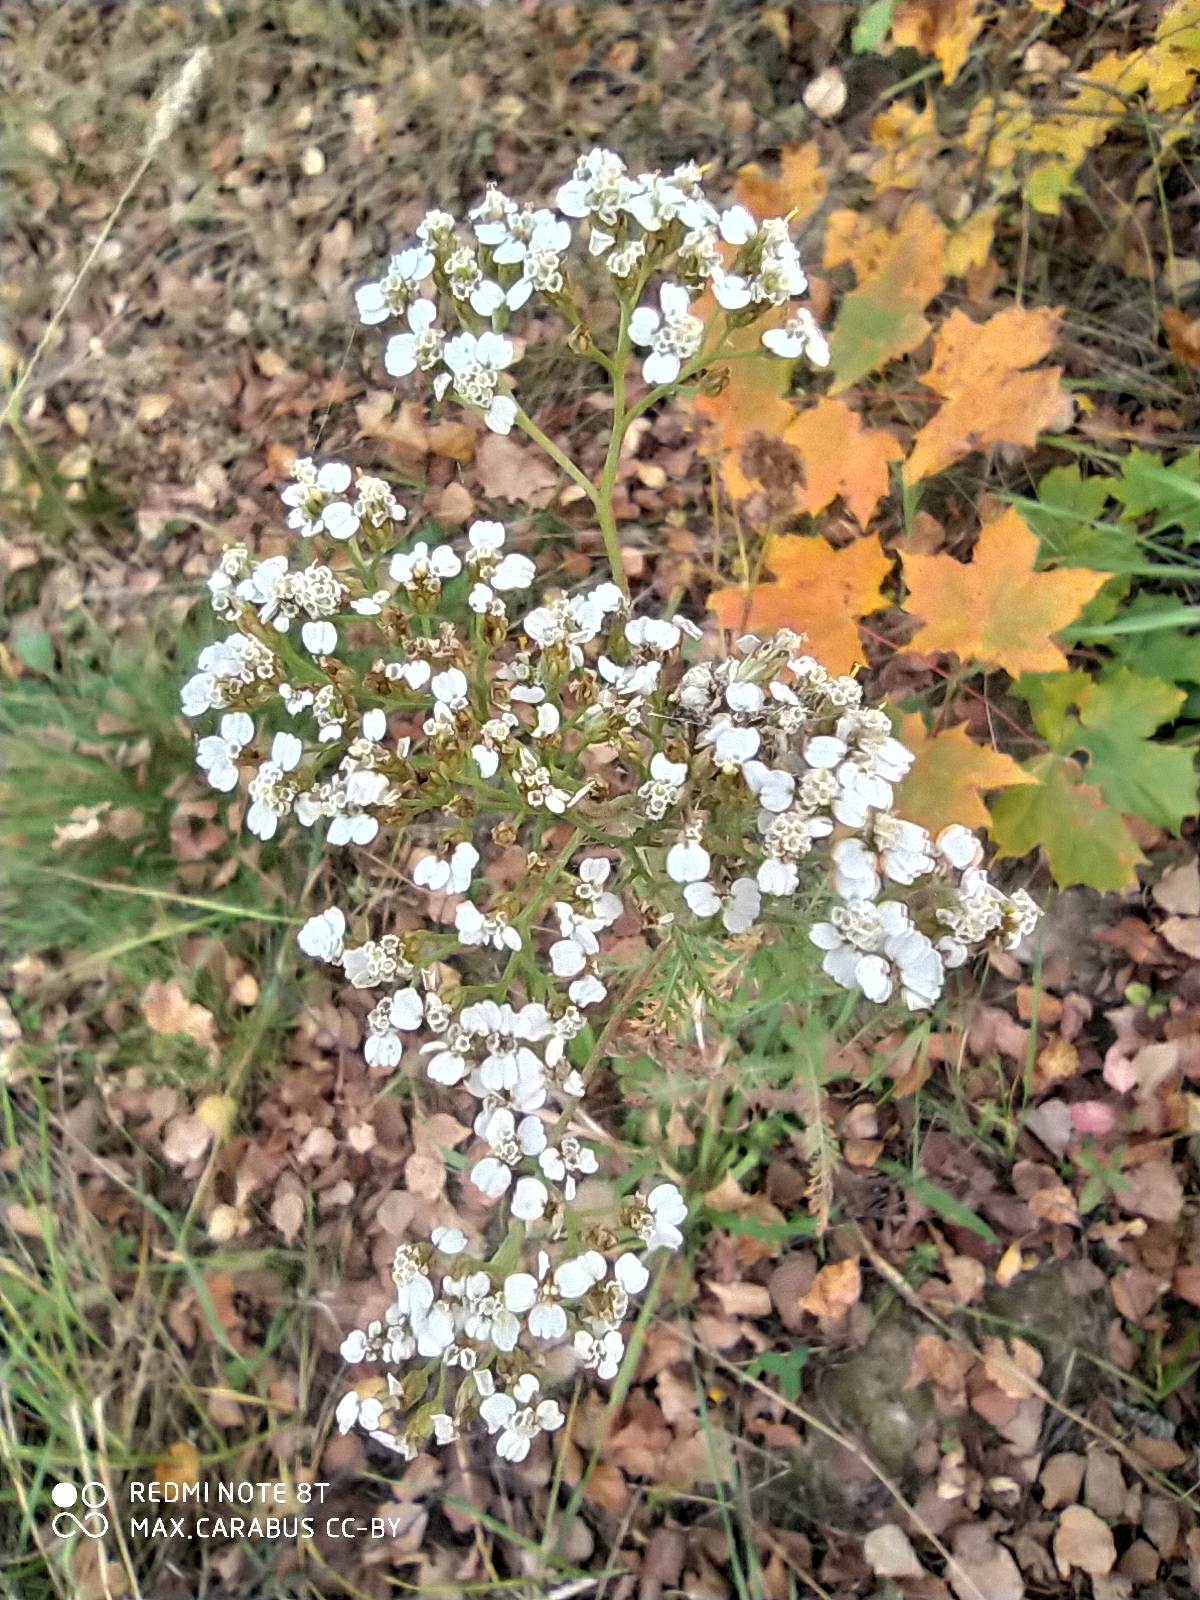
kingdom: Plantae
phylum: Tracheophyta
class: Magnoliopsida
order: Asterales
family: Asteraceae
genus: Achillea
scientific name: Achillea millefolium
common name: Yarrow
